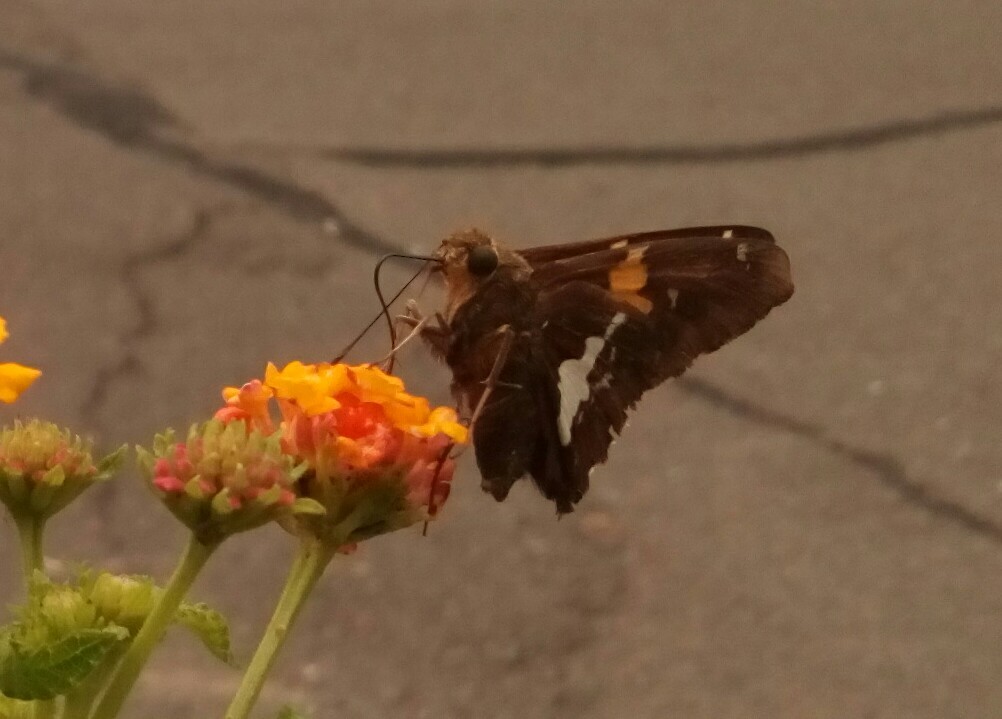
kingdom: Animalia
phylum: Arthropoda
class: Insecta
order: Lepidoptera
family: Hesperiidae
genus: Epargyreus
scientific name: Epargyreus clarus
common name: Silver-spotted skipper
